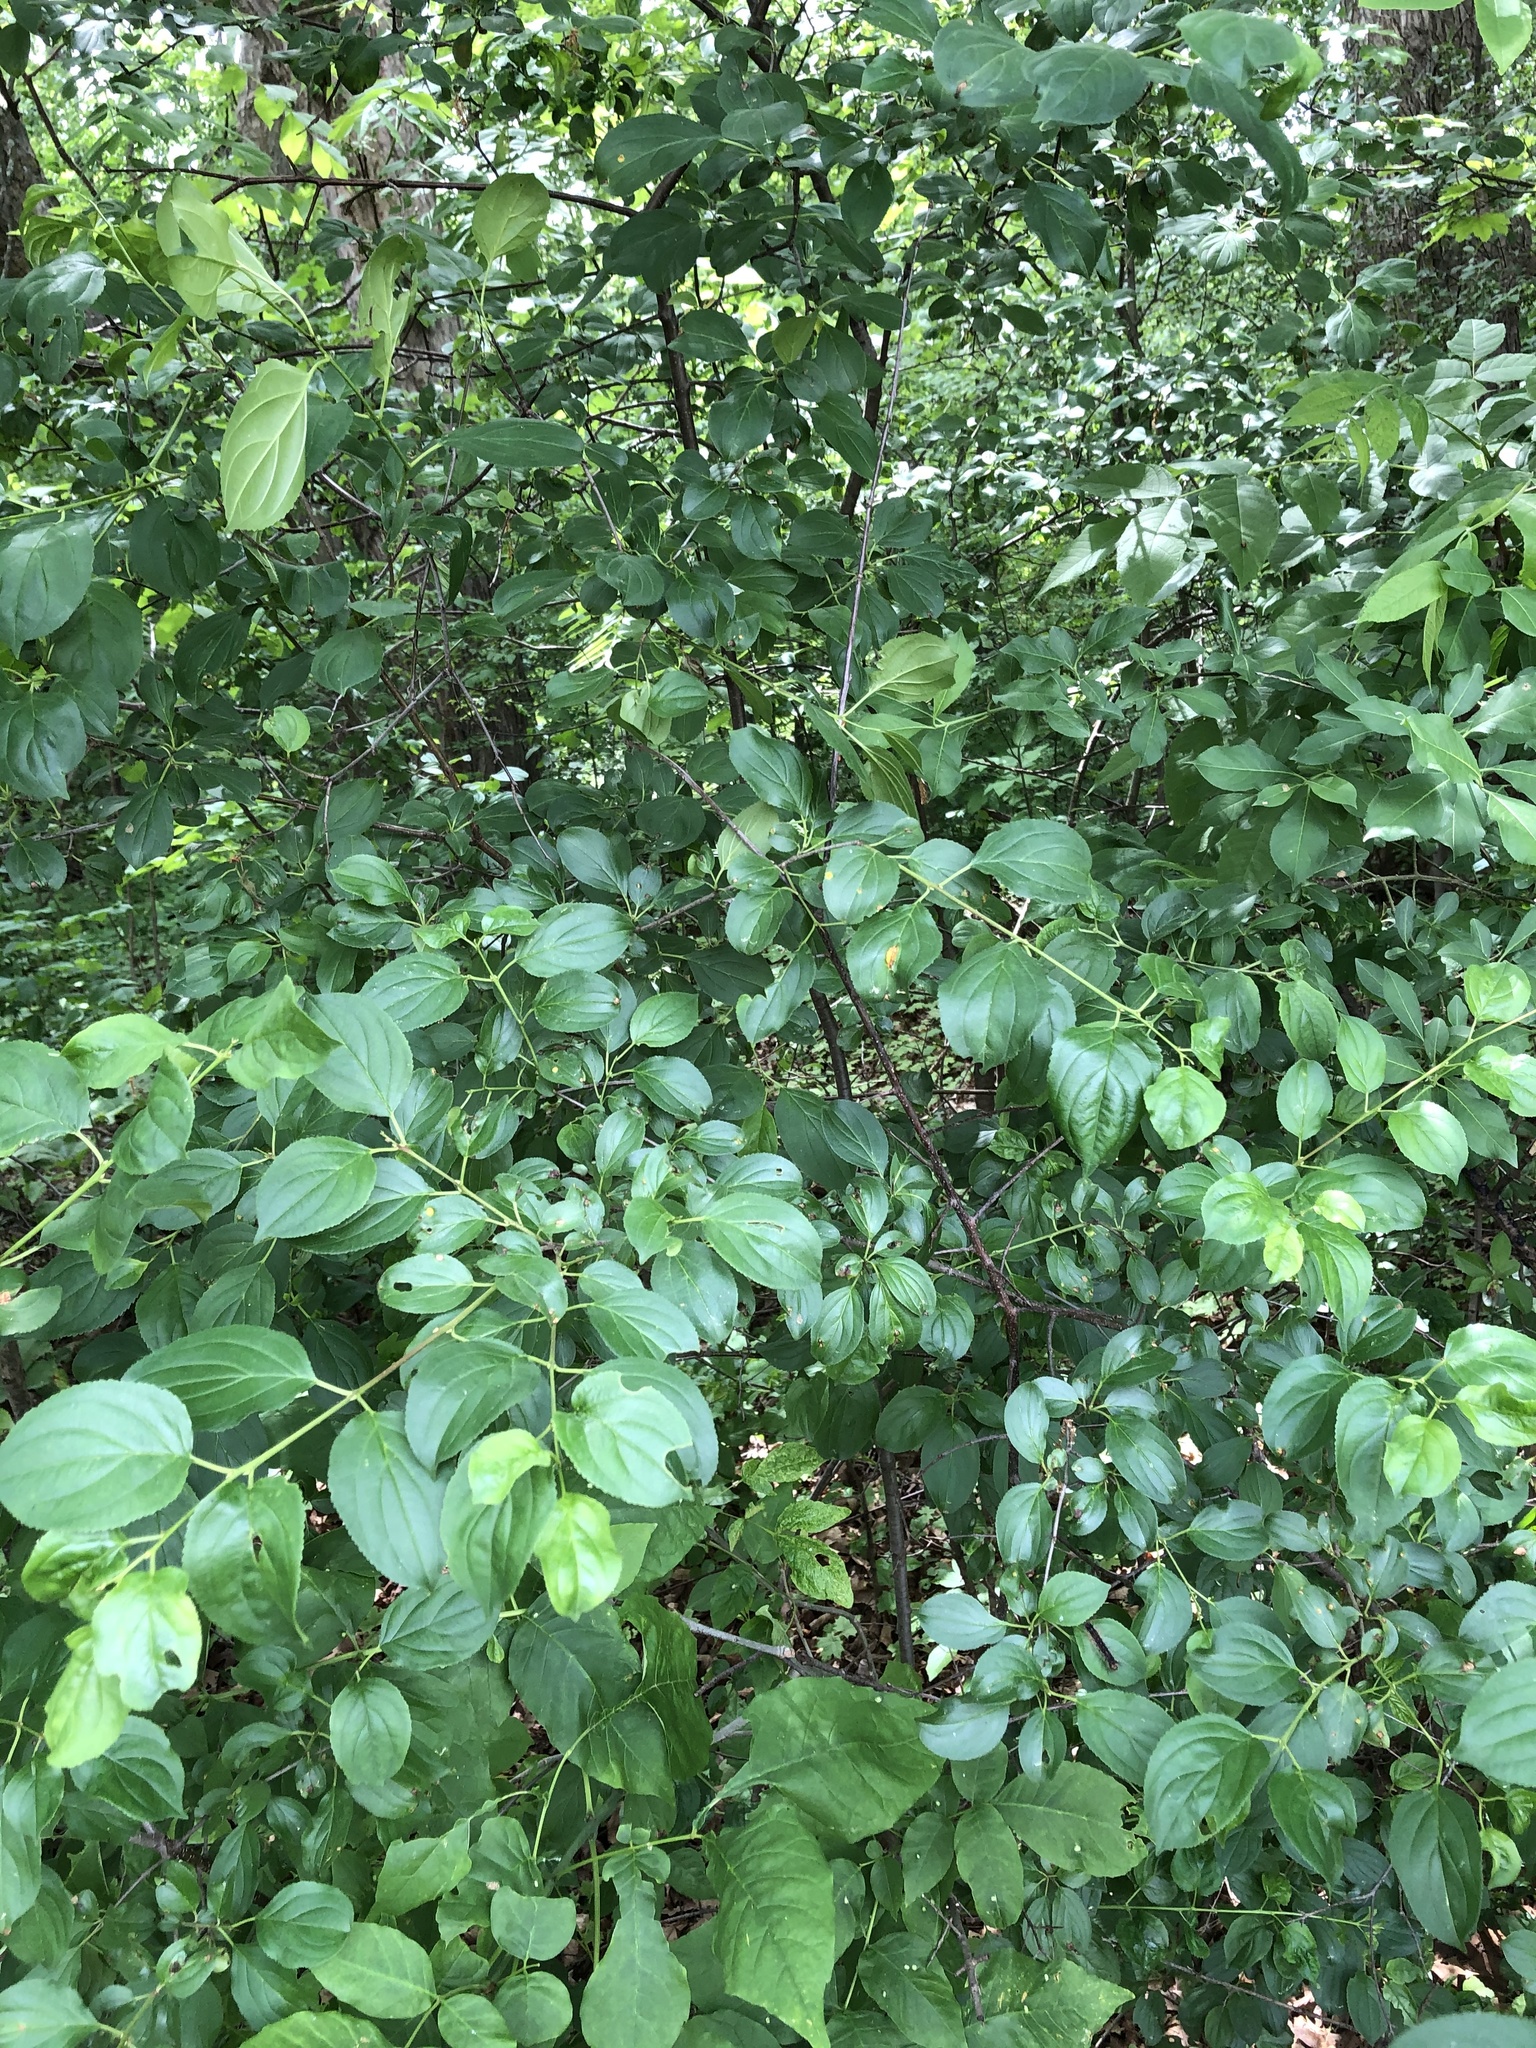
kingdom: Plantae
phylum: Tracheophyta
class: Magnoliopsida
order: Rosales
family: Rhamnaceae
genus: Rhamnus
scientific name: Rhamnus cathartica
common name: Common buckthorn
